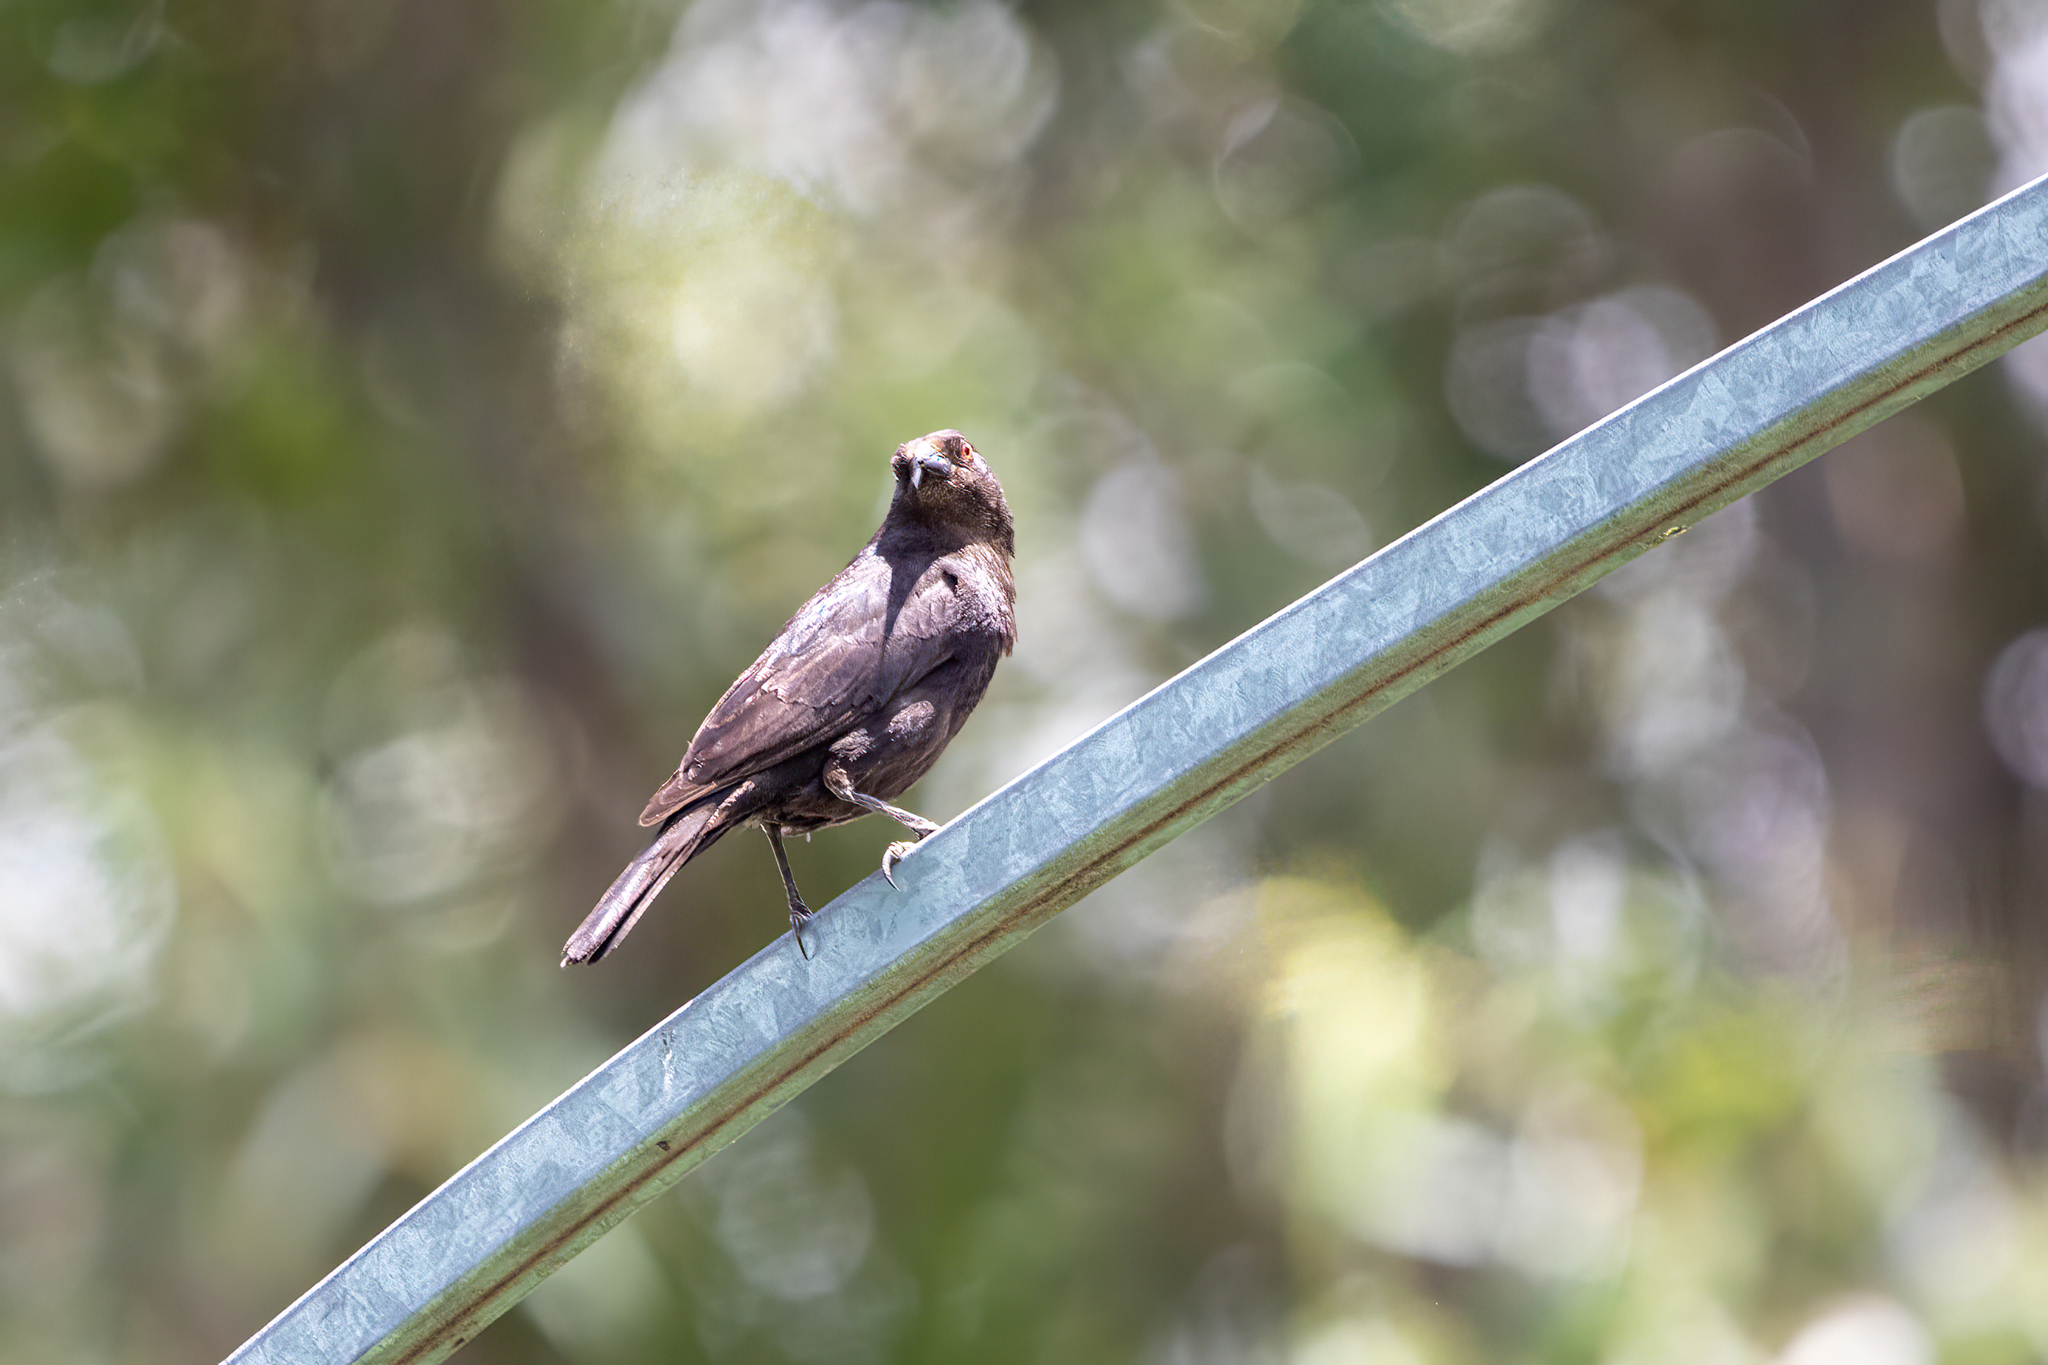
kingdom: Animalia
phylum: Chordata
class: Aves
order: Passeriformes
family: Icteridae
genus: Molothrus
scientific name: Molothrus aeneus
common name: Bronzed cowbird
